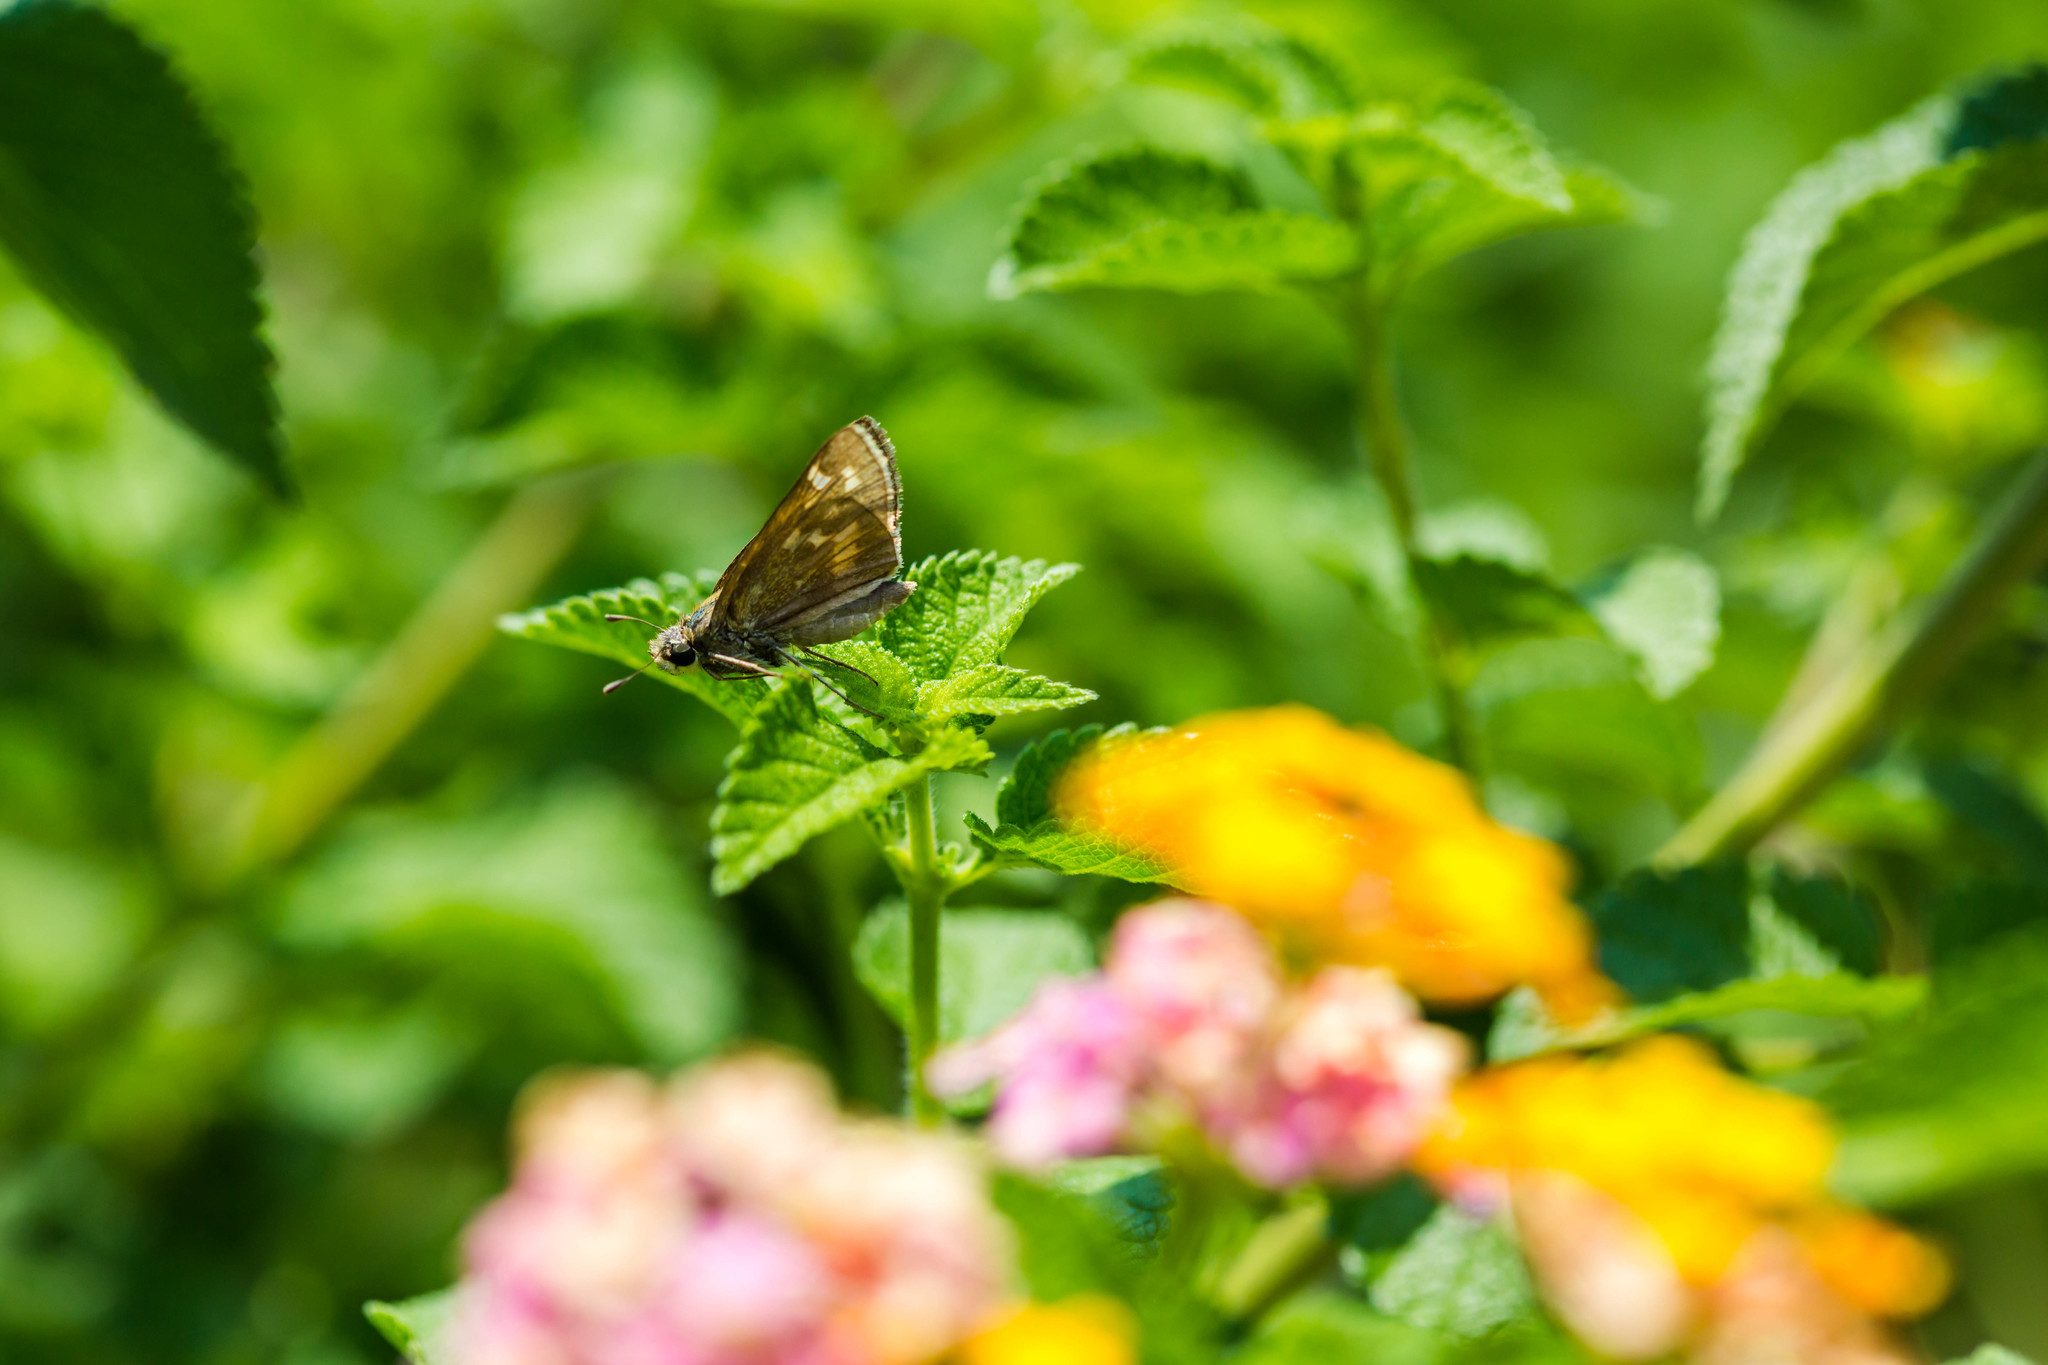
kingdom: Animalia
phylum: Arthropoda
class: Insecta
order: Lepidoptera
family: Hesperiidae
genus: Atalopedes
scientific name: Atalopedes
